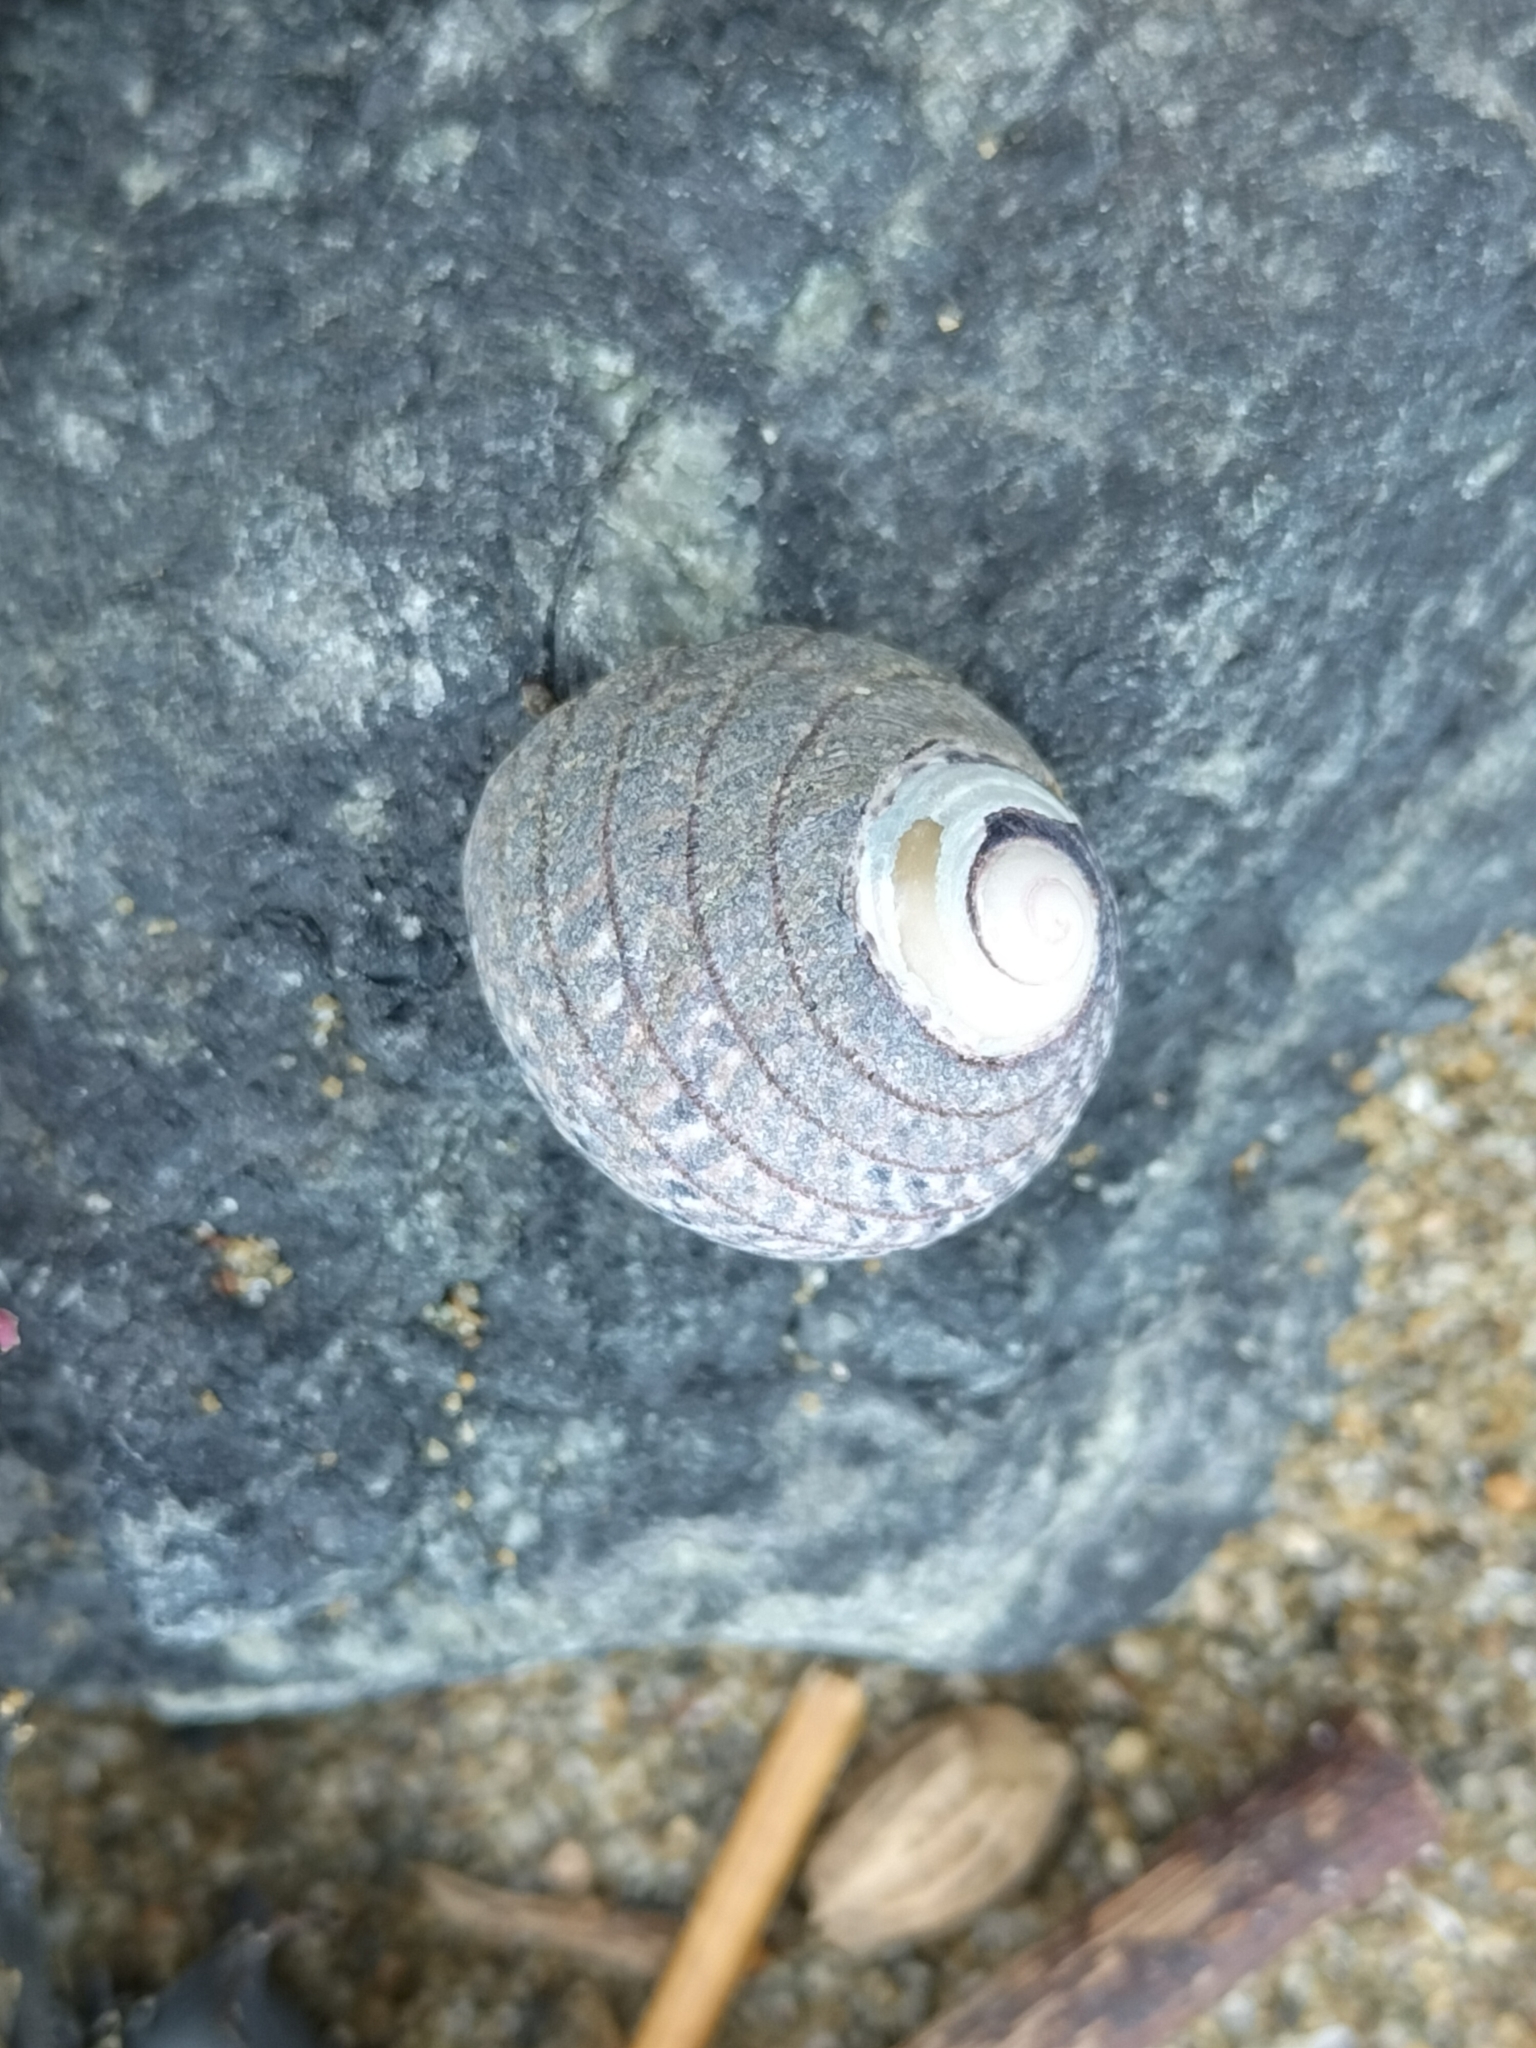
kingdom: Animalia
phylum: Mollusca
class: Gastropoda
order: Trochida
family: Trochidae
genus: Diloma
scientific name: Diloma aethiops
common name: Scorched monodont
